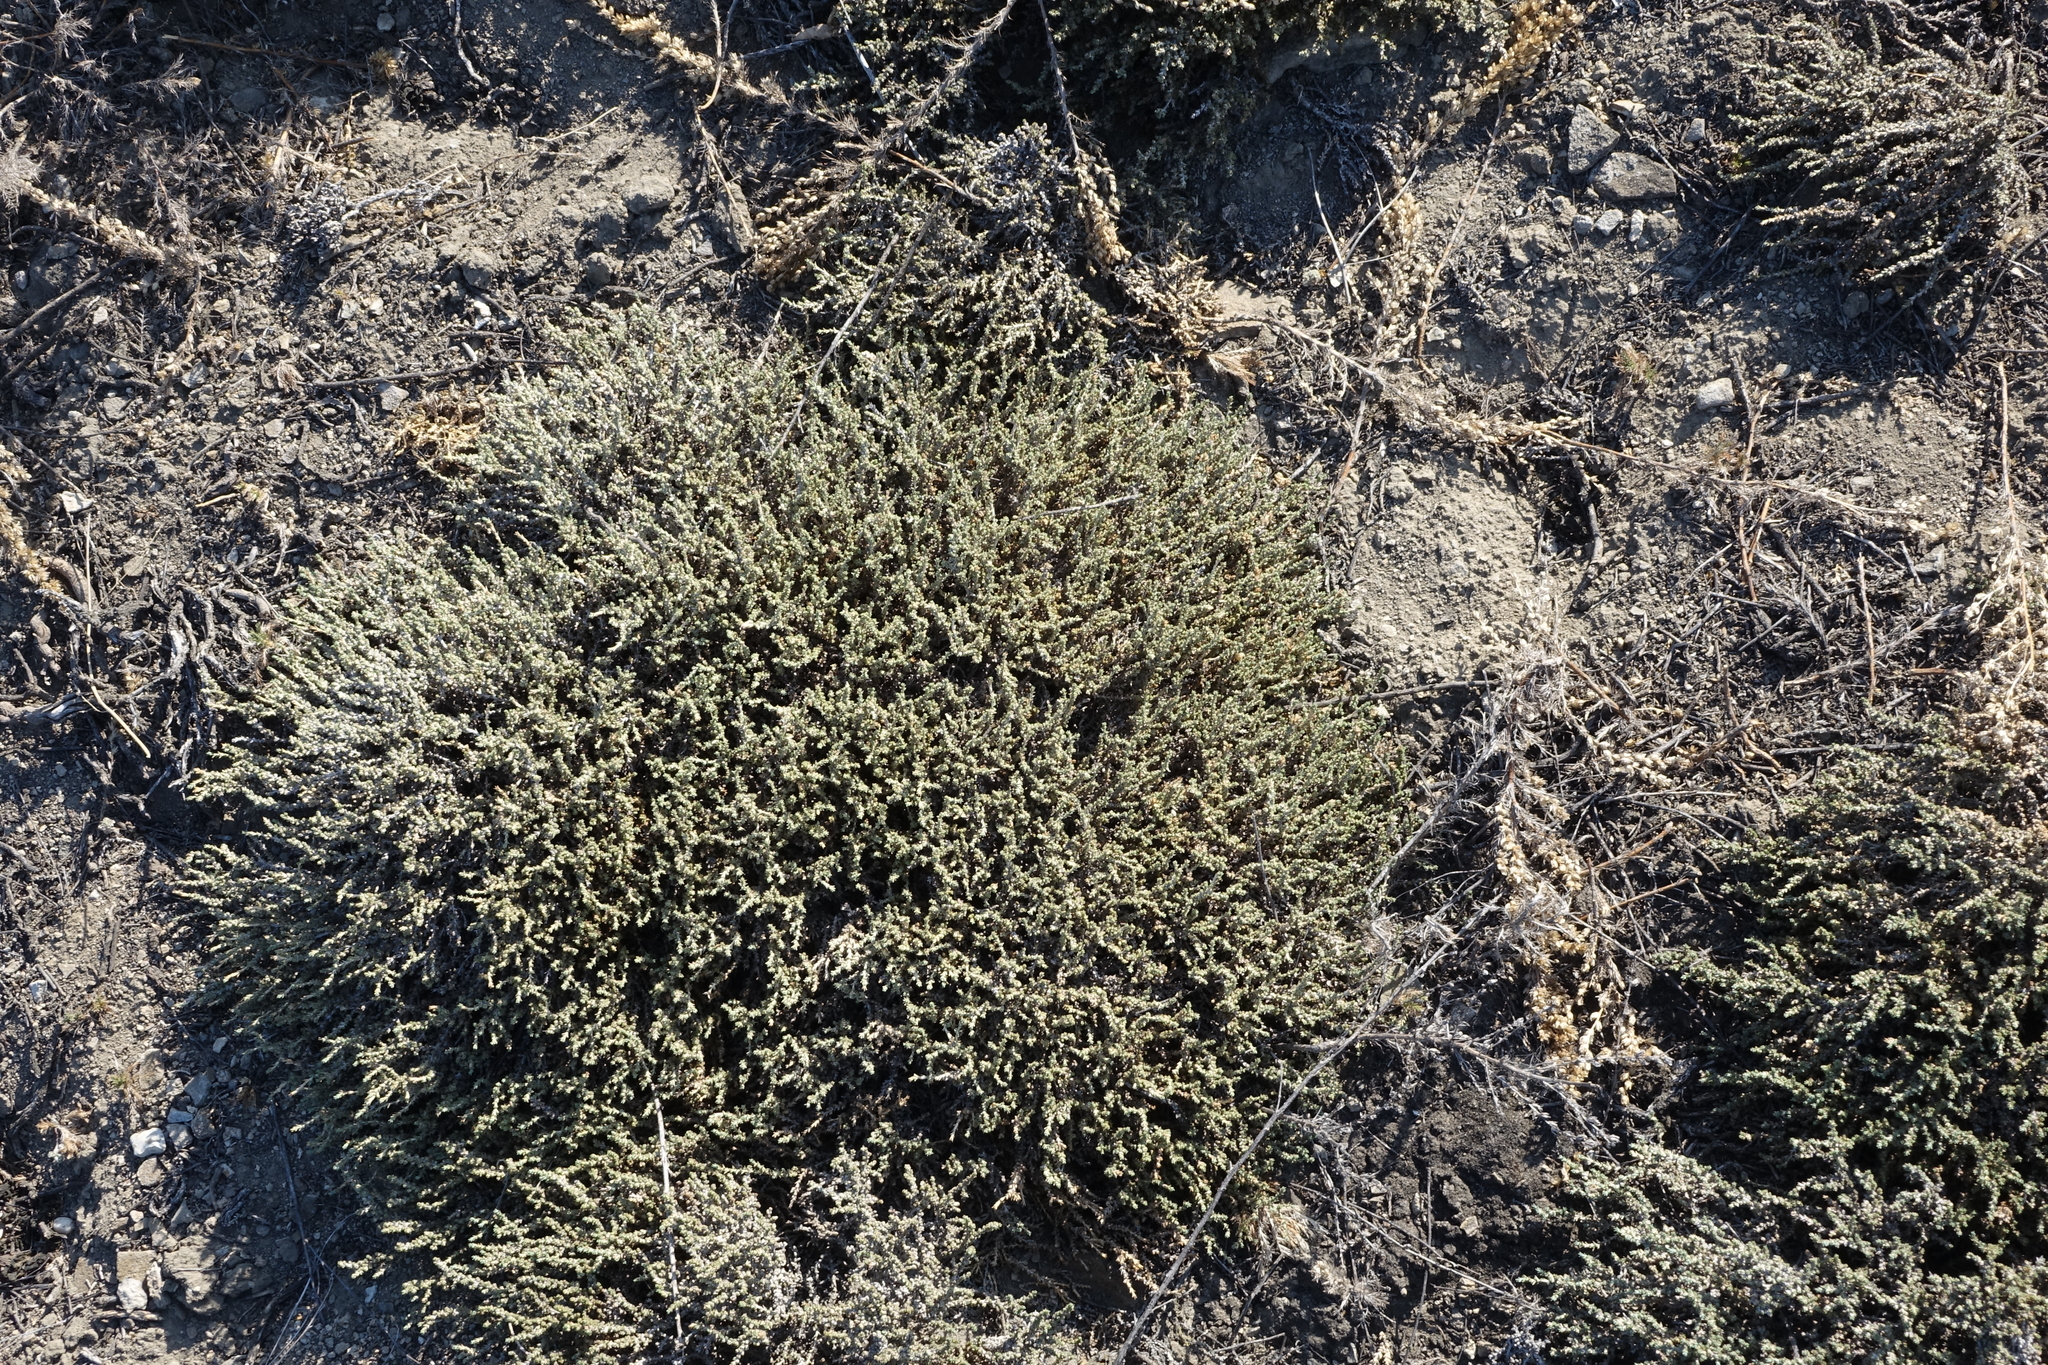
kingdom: Plantae
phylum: Tracheophyta
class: Magnoliopsida
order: Caryophyllales
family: Amaranthaceae
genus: Nanophyton
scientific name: Nanophyton grubovii
